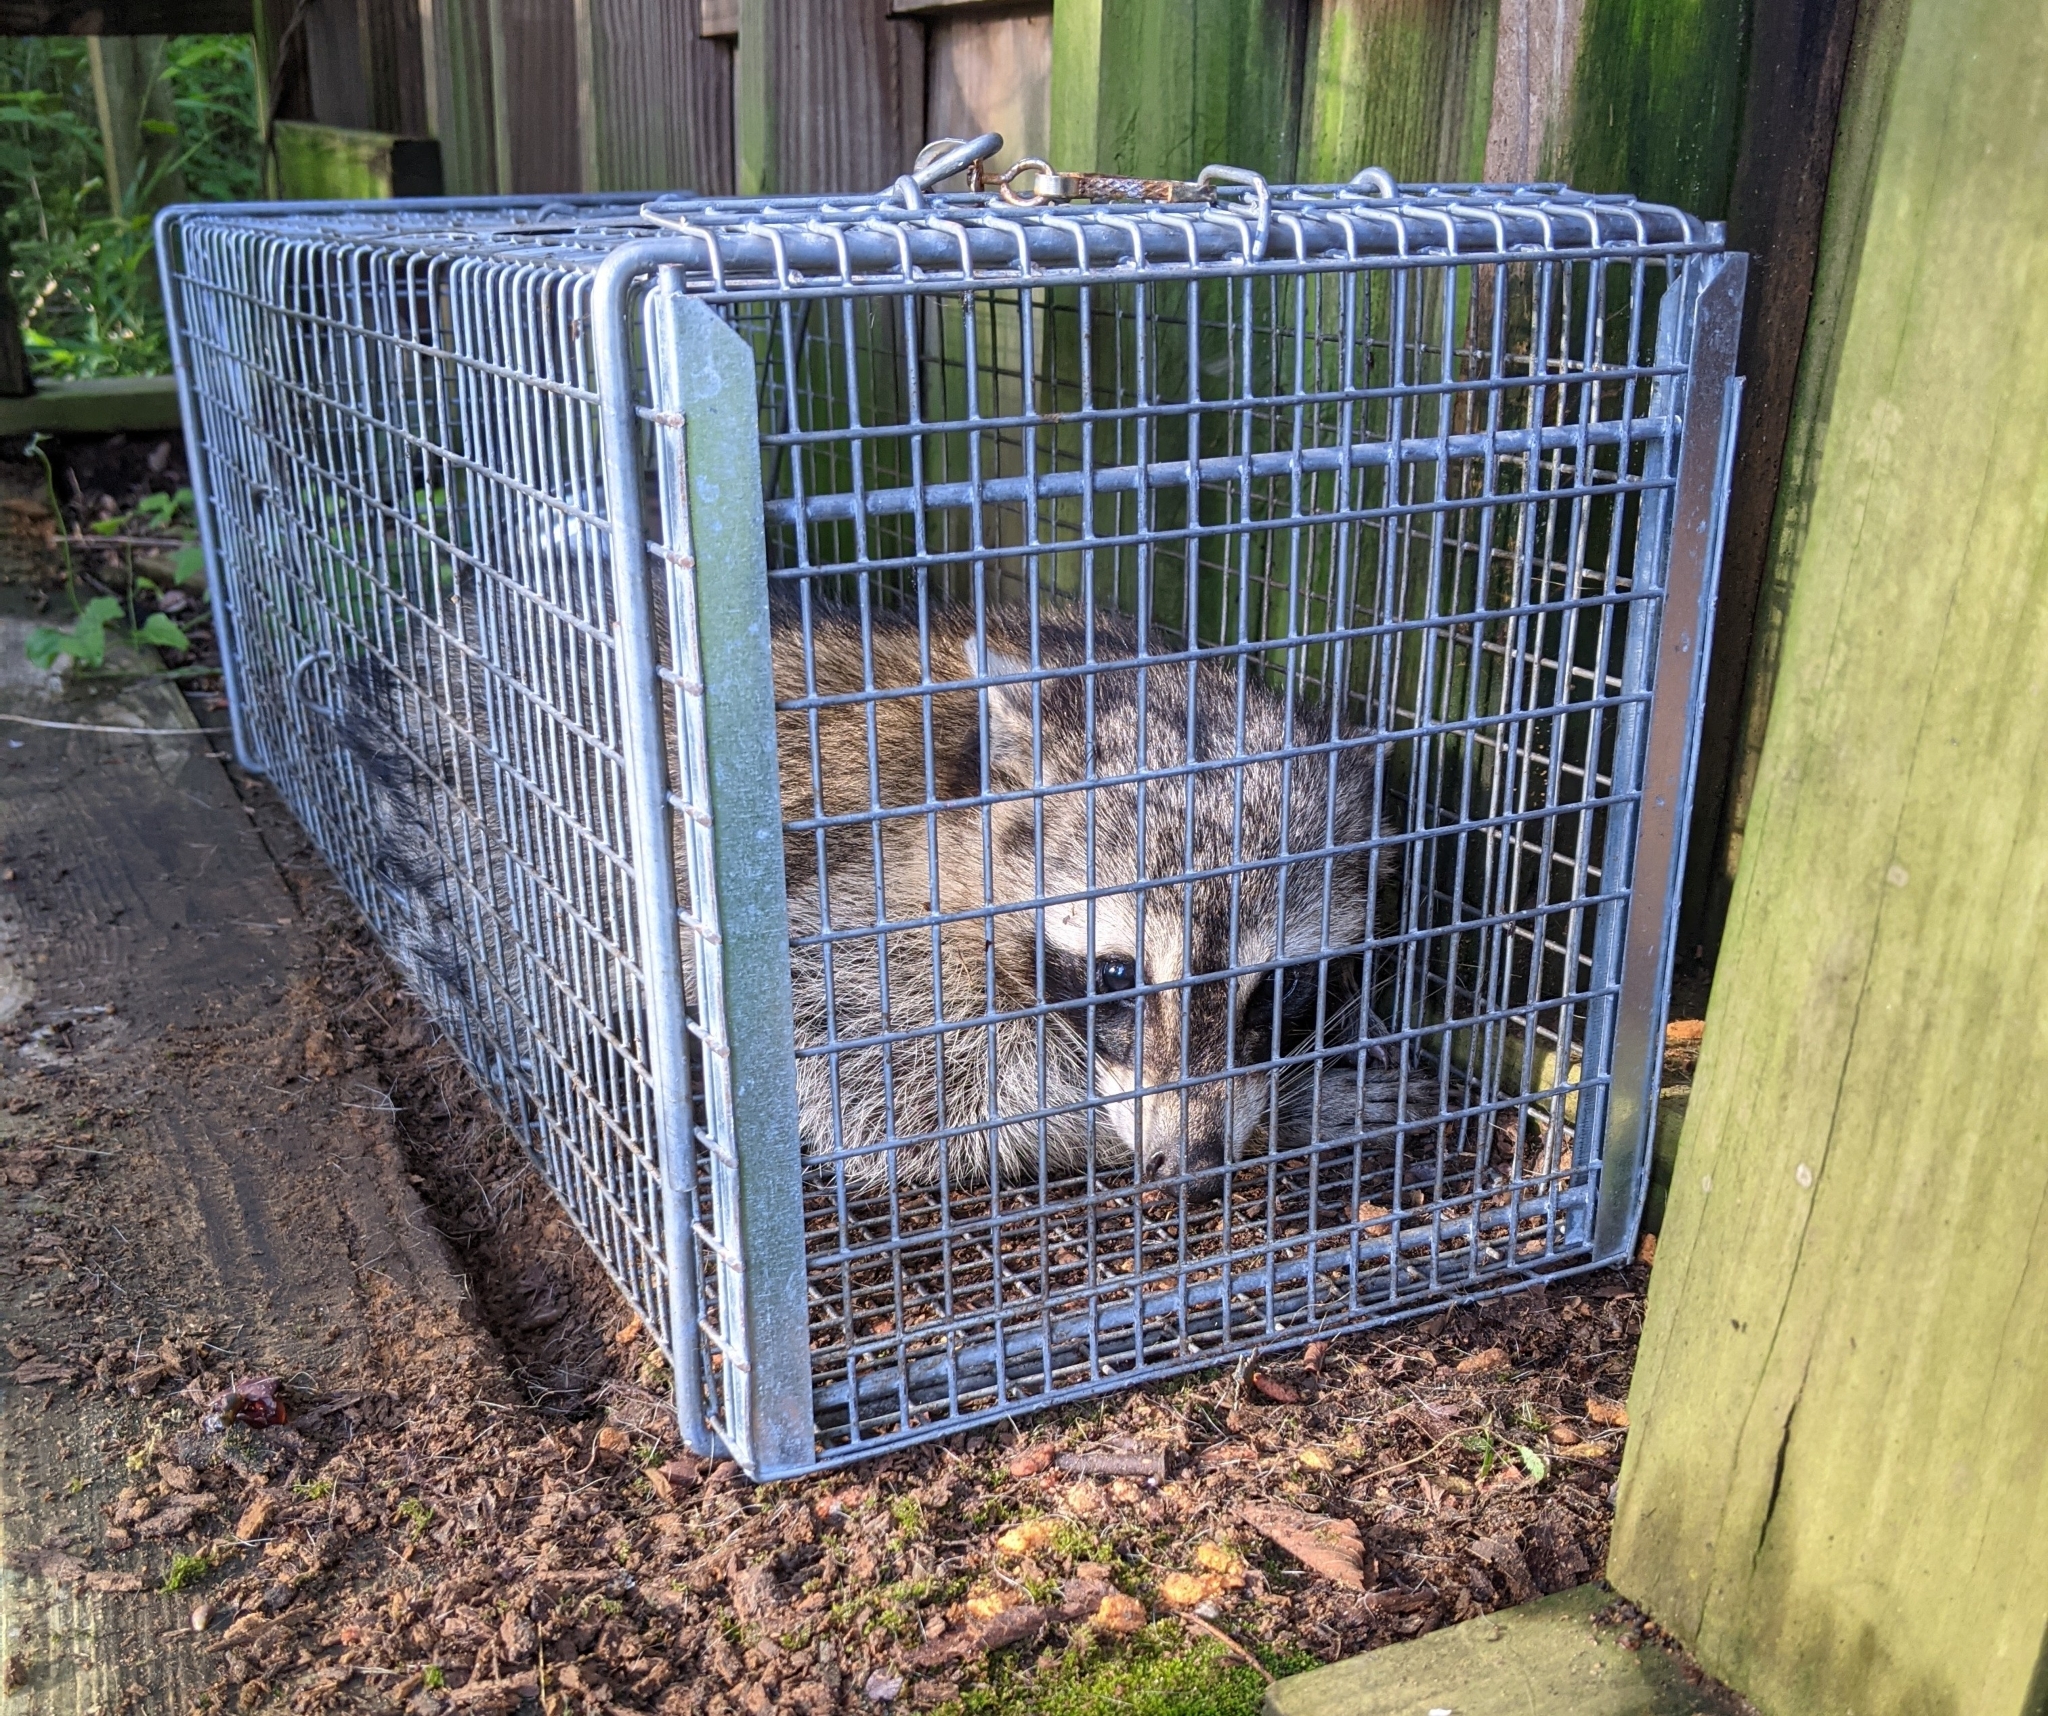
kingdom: Animalia
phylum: Chordata
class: Mammalia
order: Carnivora
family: Procyonidae
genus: Procyon
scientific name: Procyon lotor
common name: Raccoon
